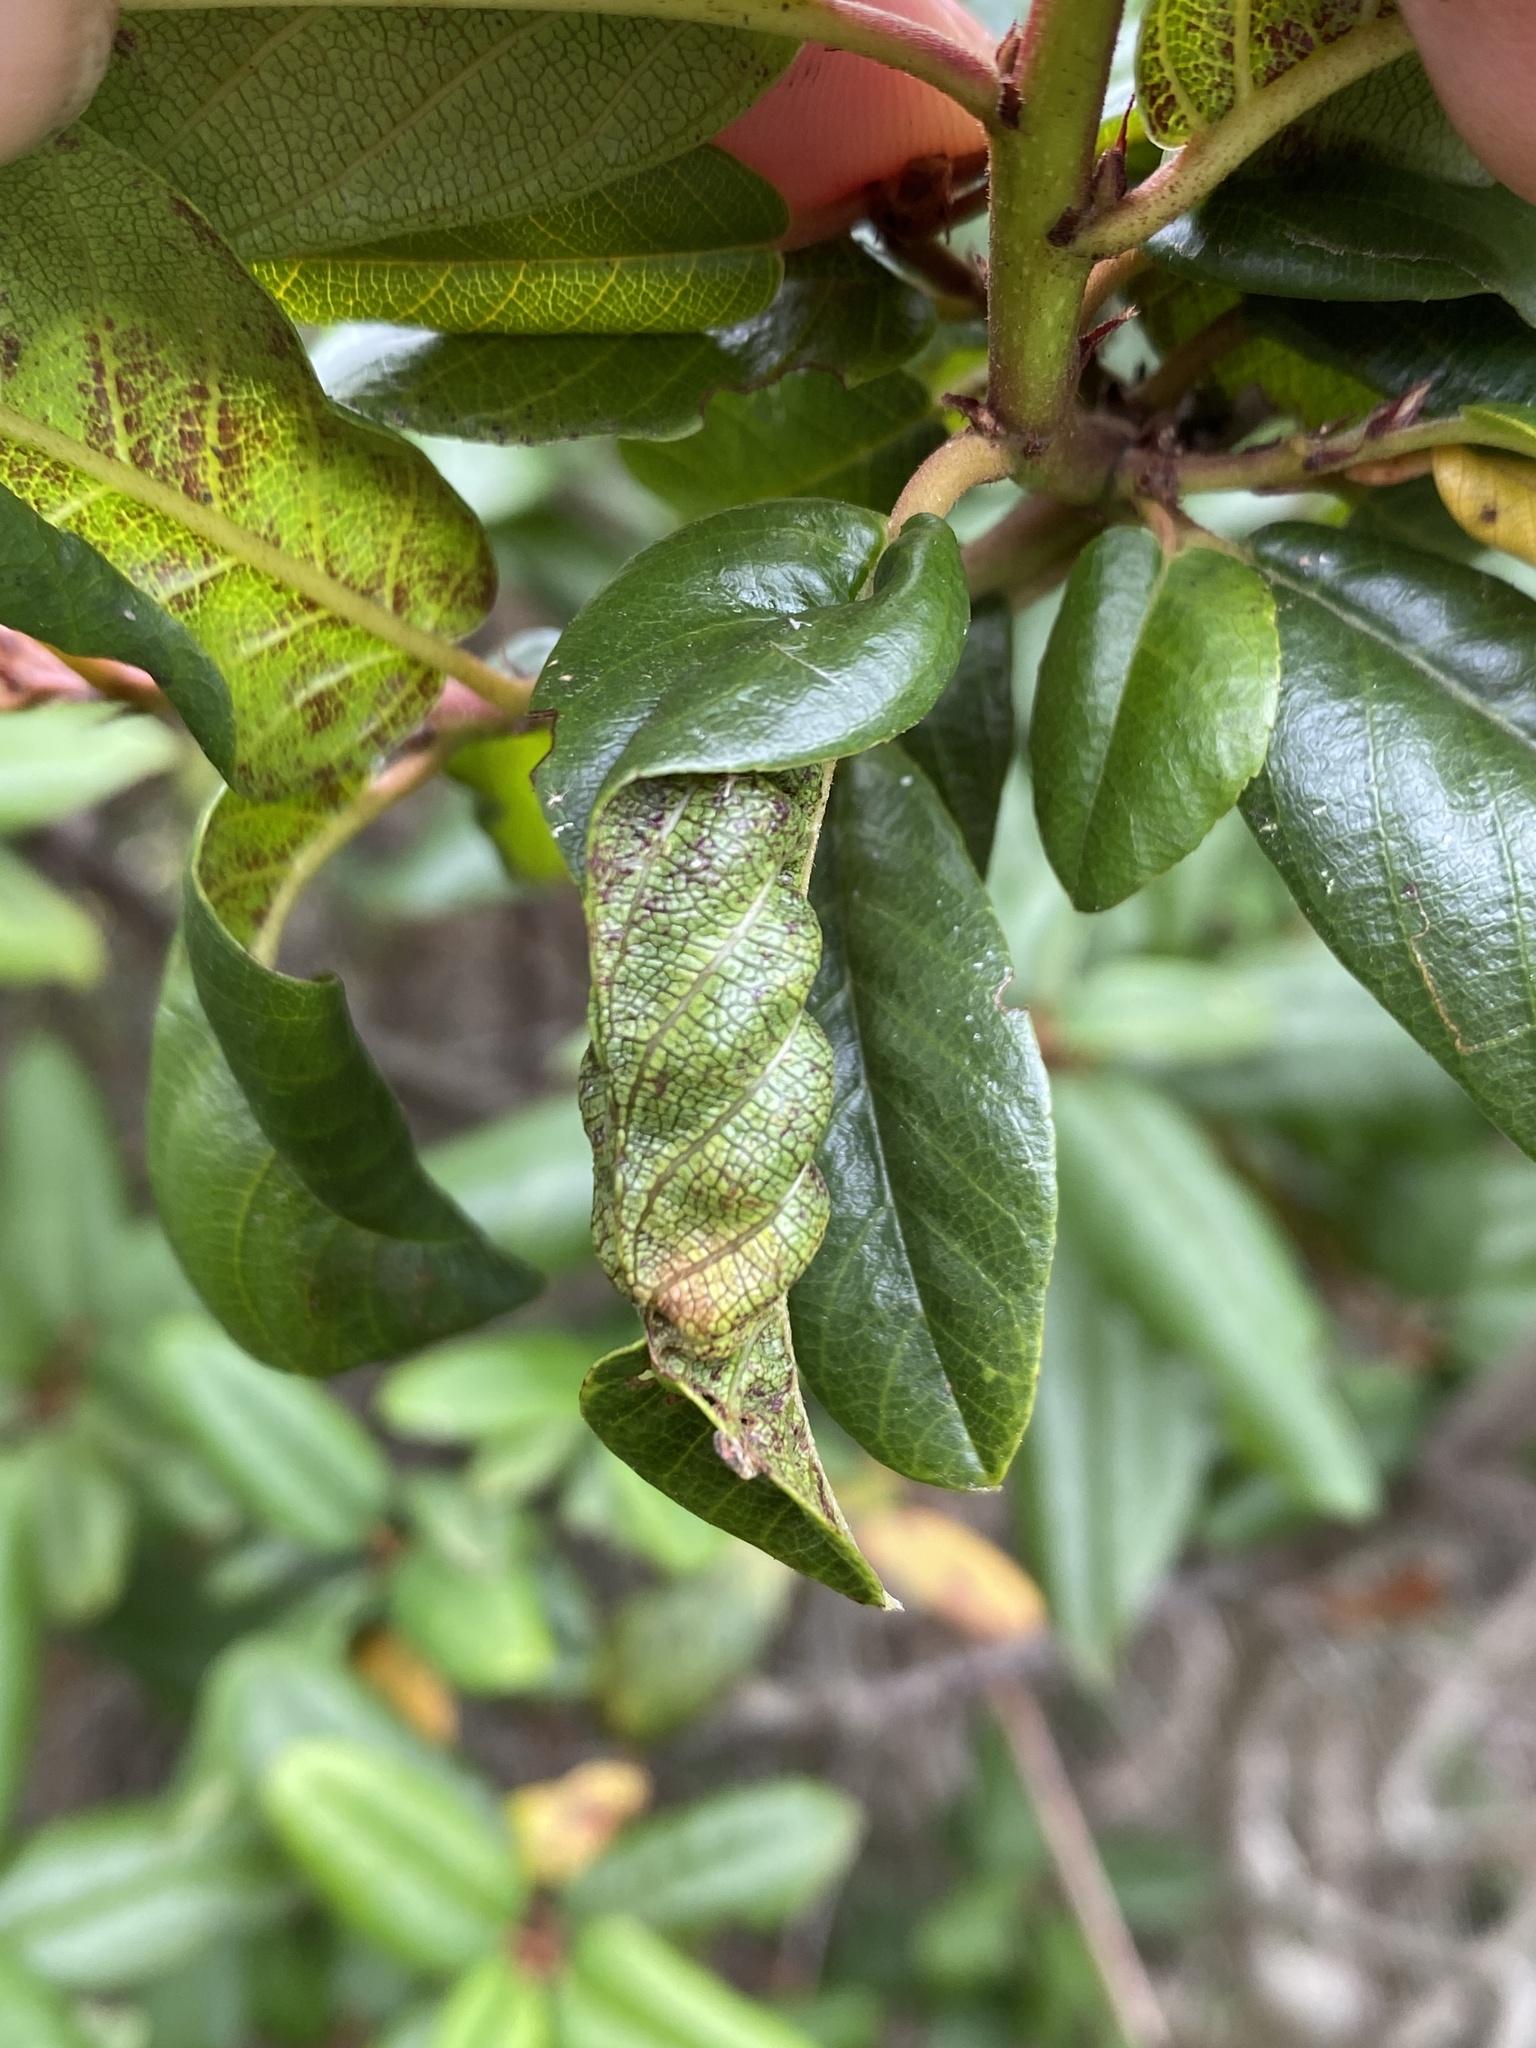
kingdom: Animalia
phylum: Arthropoda
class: Insecta
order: Lepidoptera
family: Cosmopterigidae
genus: Sorhagenia
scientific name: Sorhagenia nimbosus
